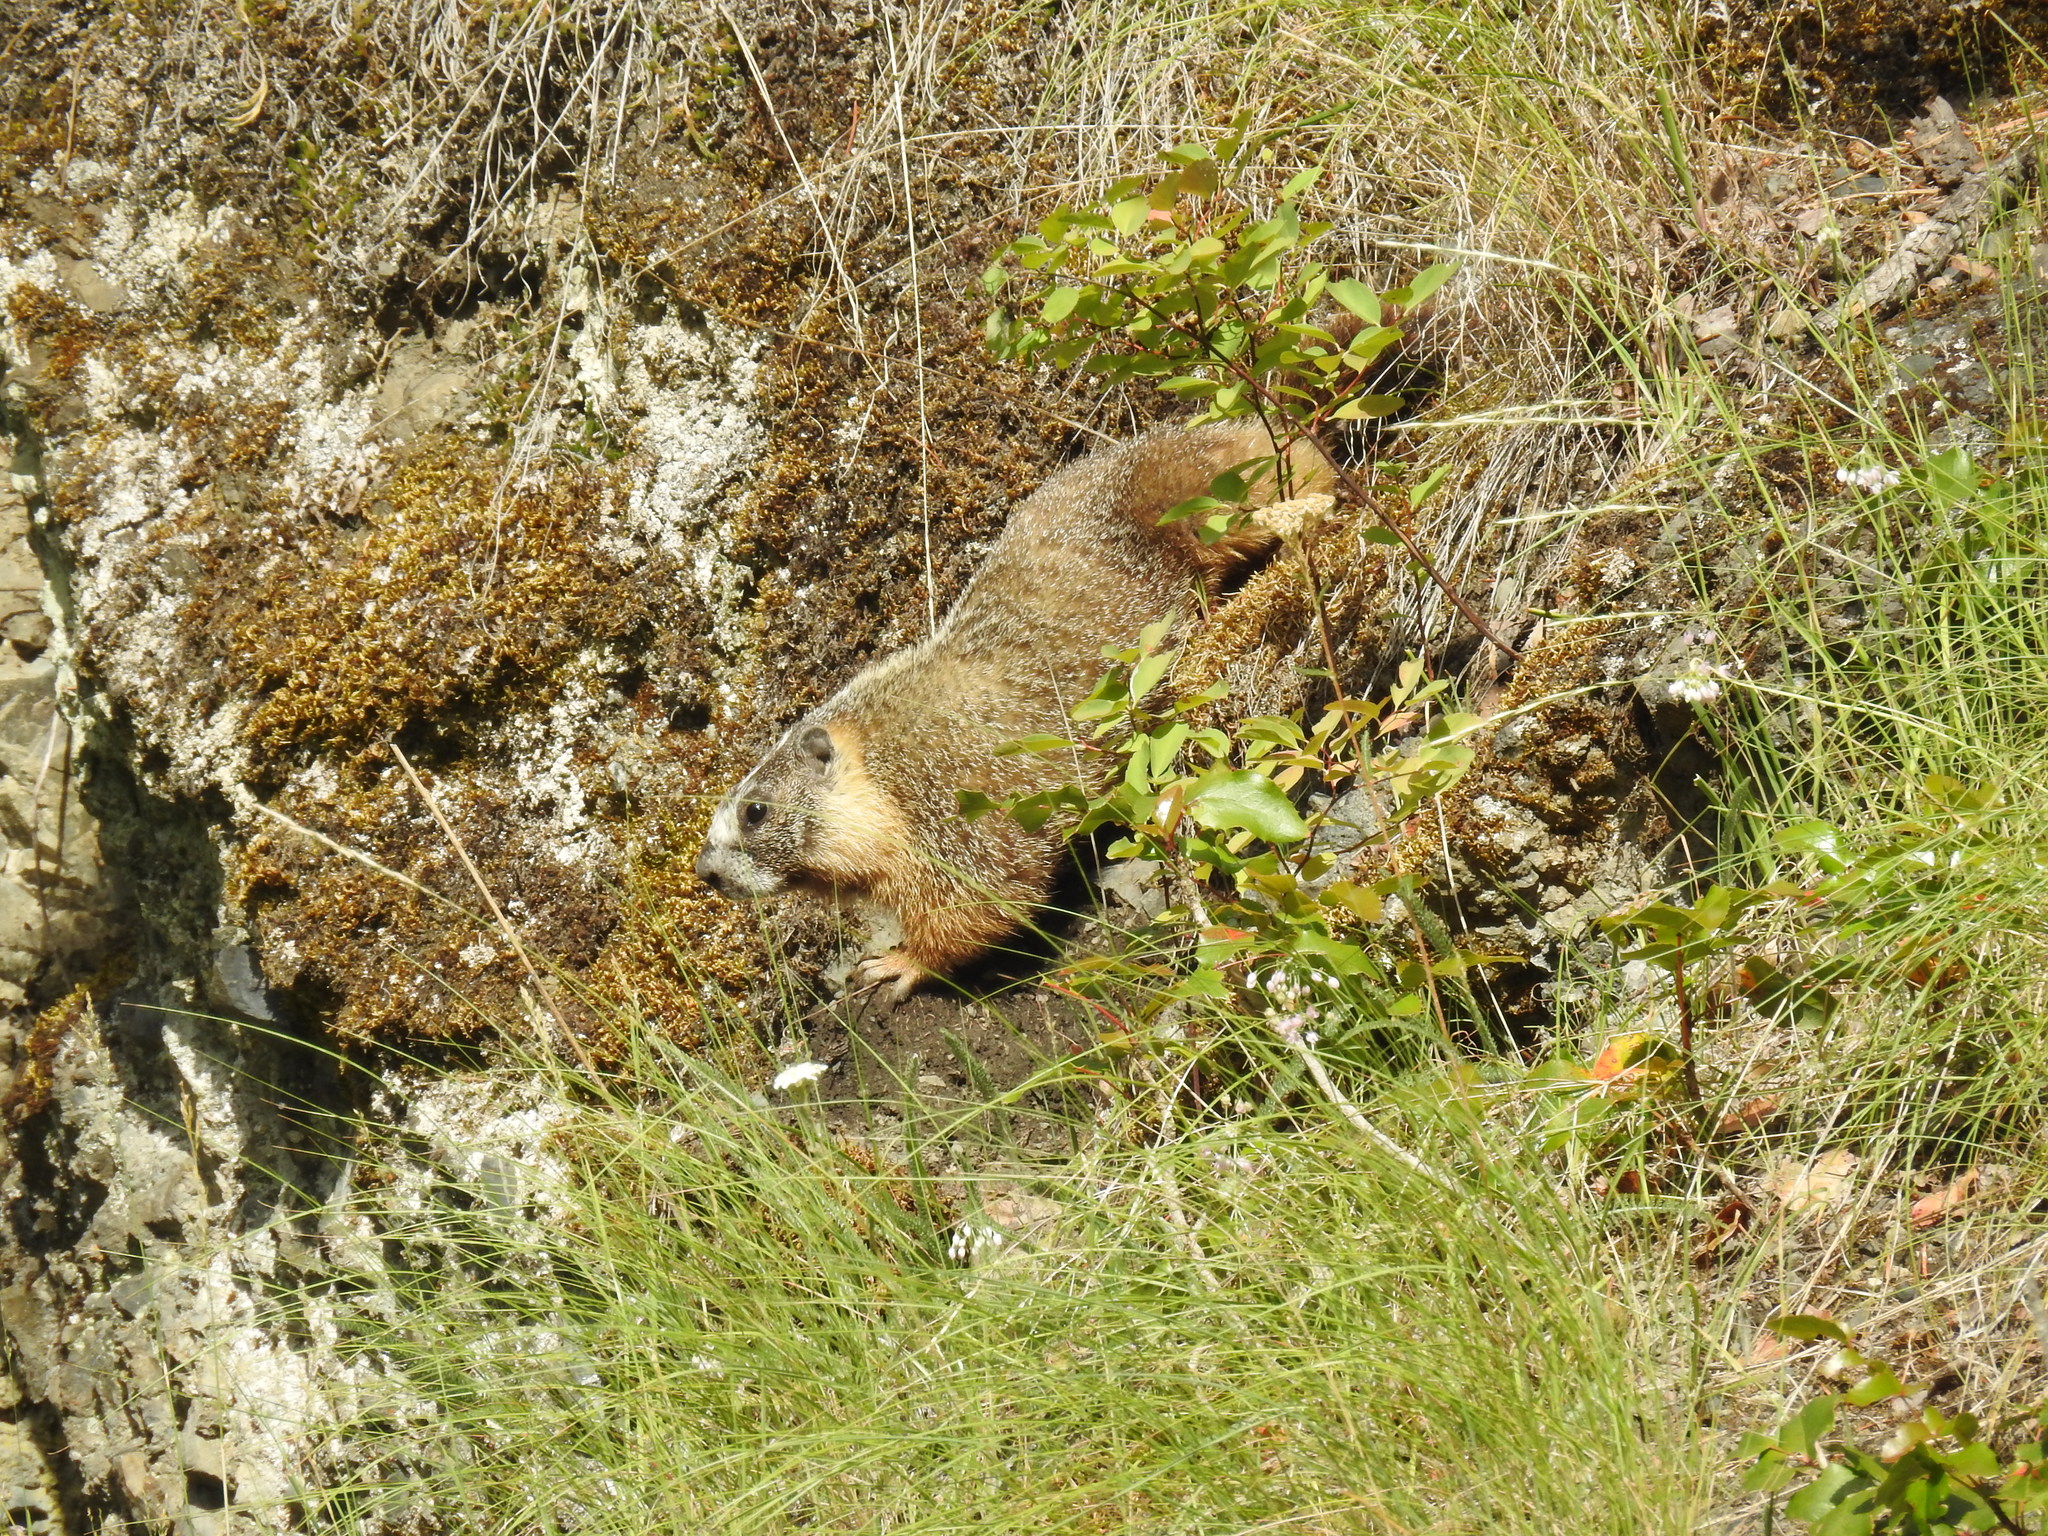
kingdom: Animalia
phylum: Chordata
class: Mammalia
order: Rodentia
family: Sciuridae
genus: Marmota
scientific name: Marmota flaviventris
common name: Yellow-bellied marmot
